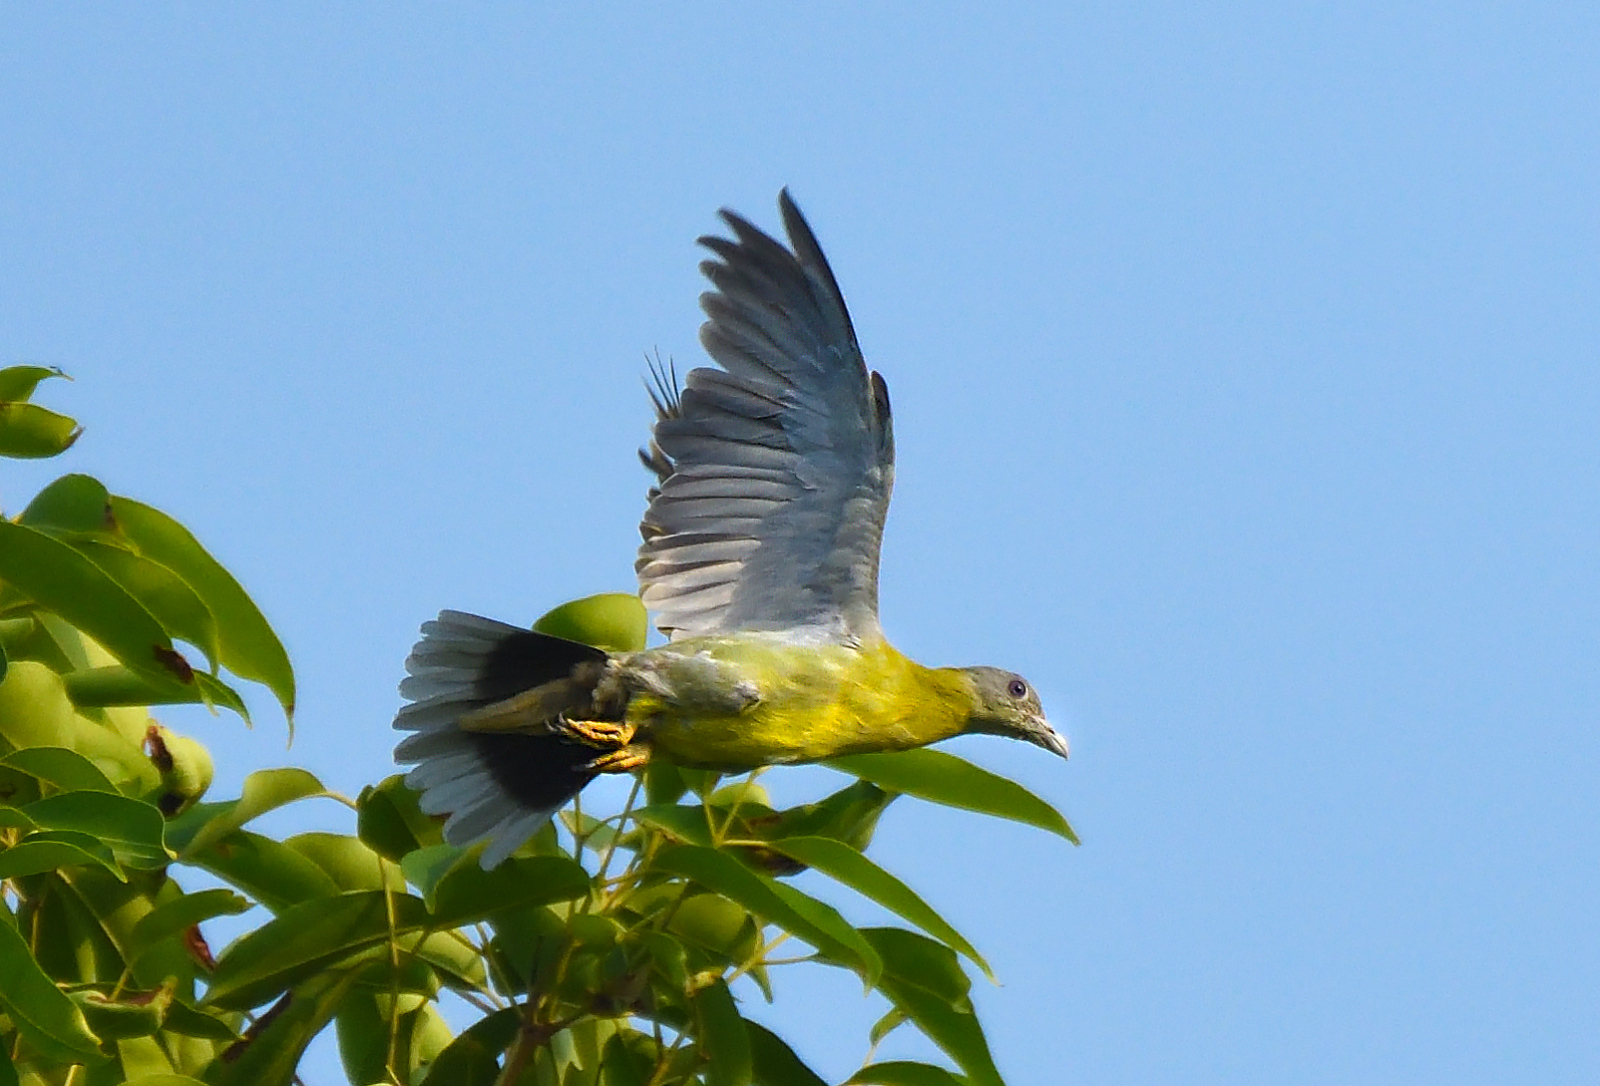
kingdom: Animalia
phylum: Chordata
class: Aves
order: Columbiformes
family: Columbidae
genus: Treron
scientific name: Treron phoenicopterus
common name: Yellow-footed green pigeon
